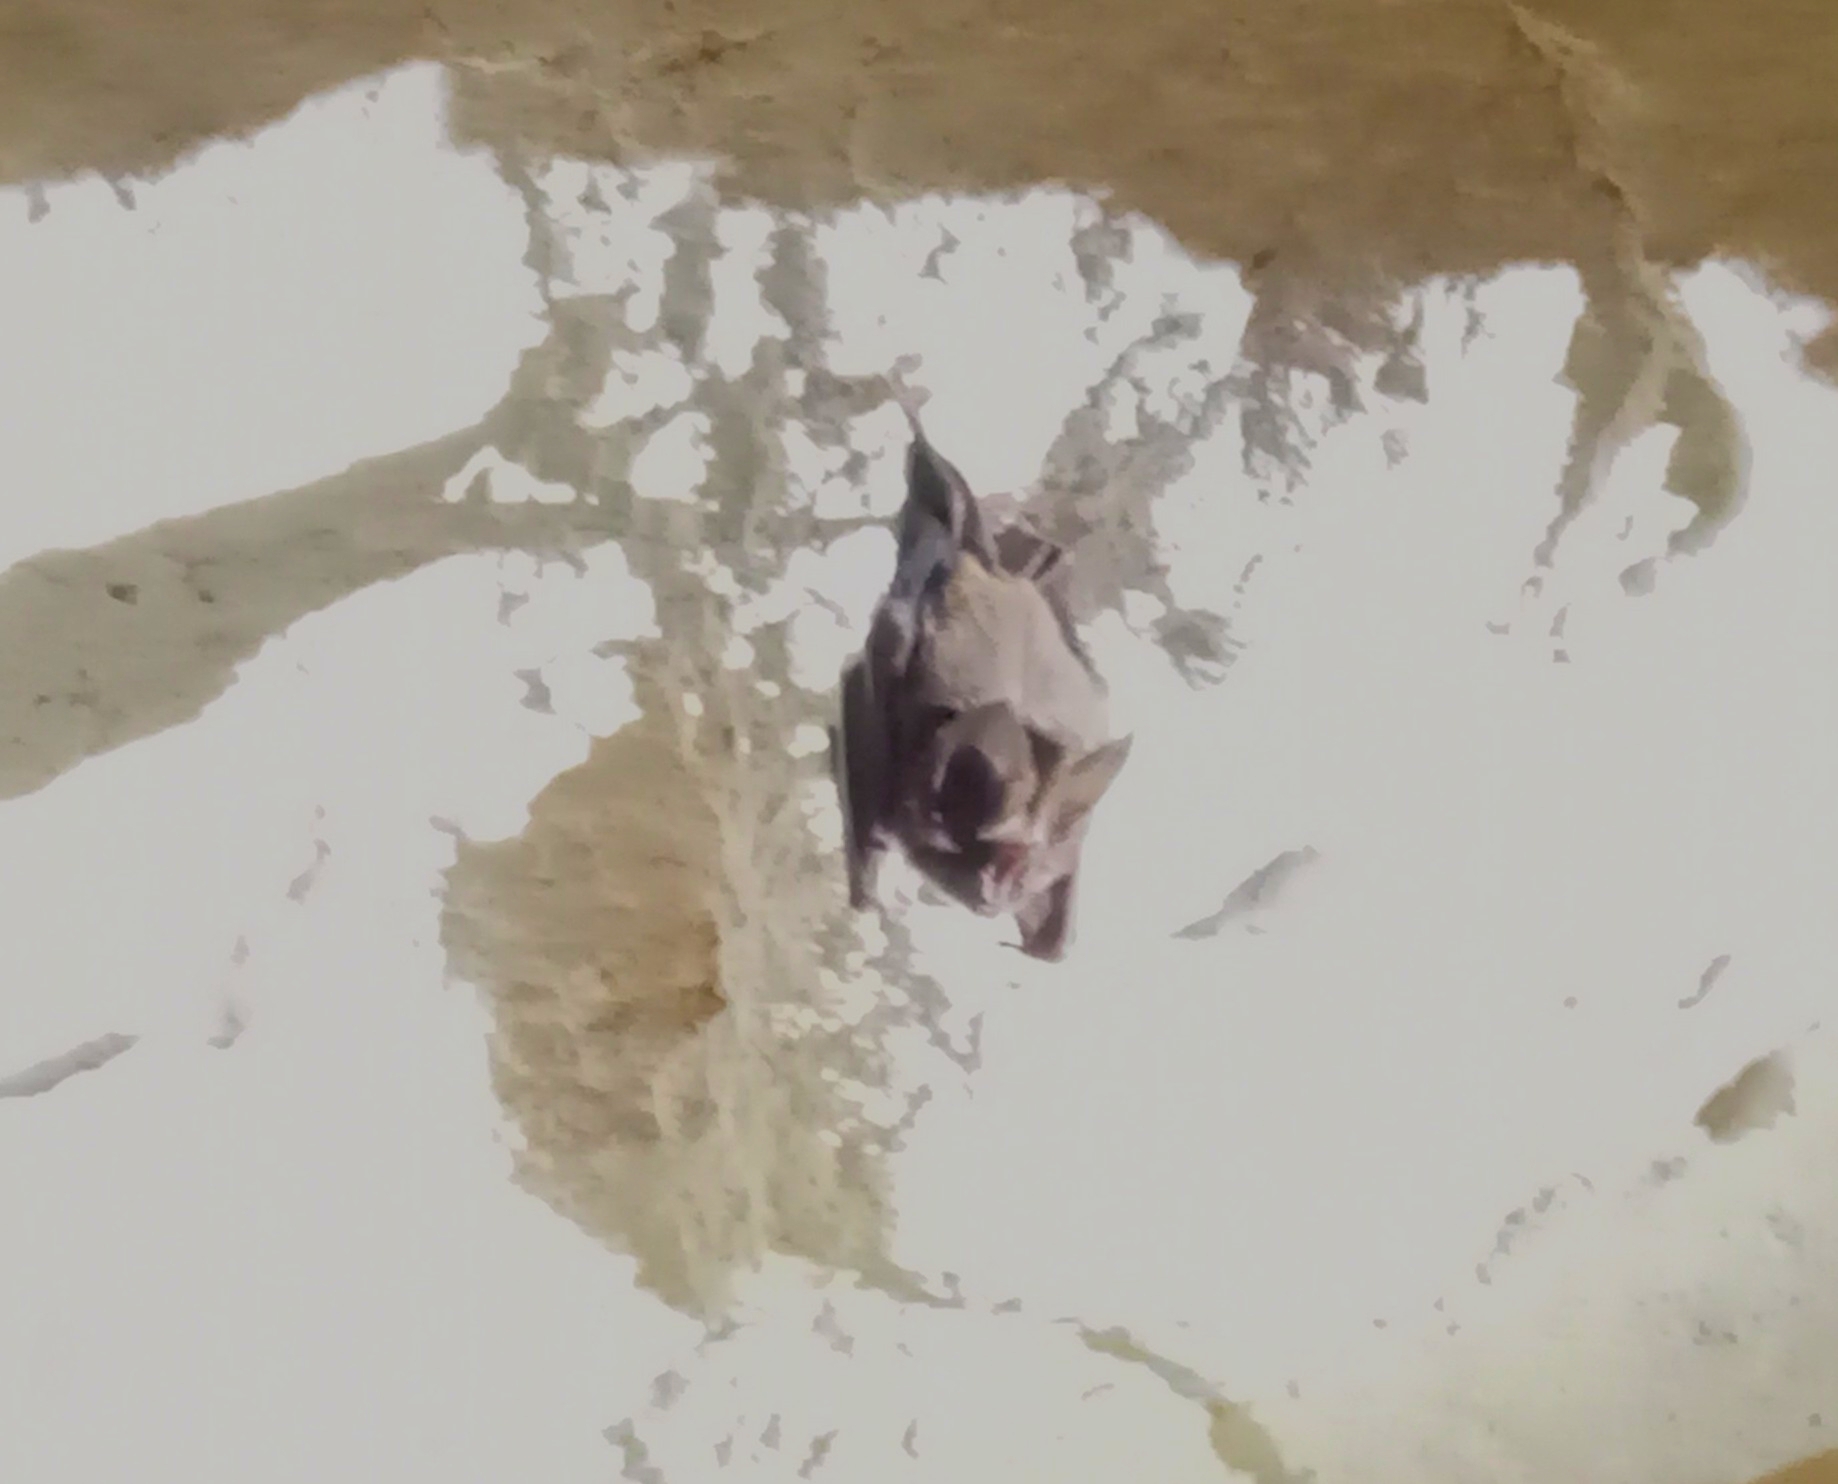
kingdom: Animalia
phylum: Chordata
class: Mammalia
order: Chiroptera
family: Phyllostomidae
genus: Mimon
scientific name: Mimon cozumelae
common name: Cozumelan golden bat
